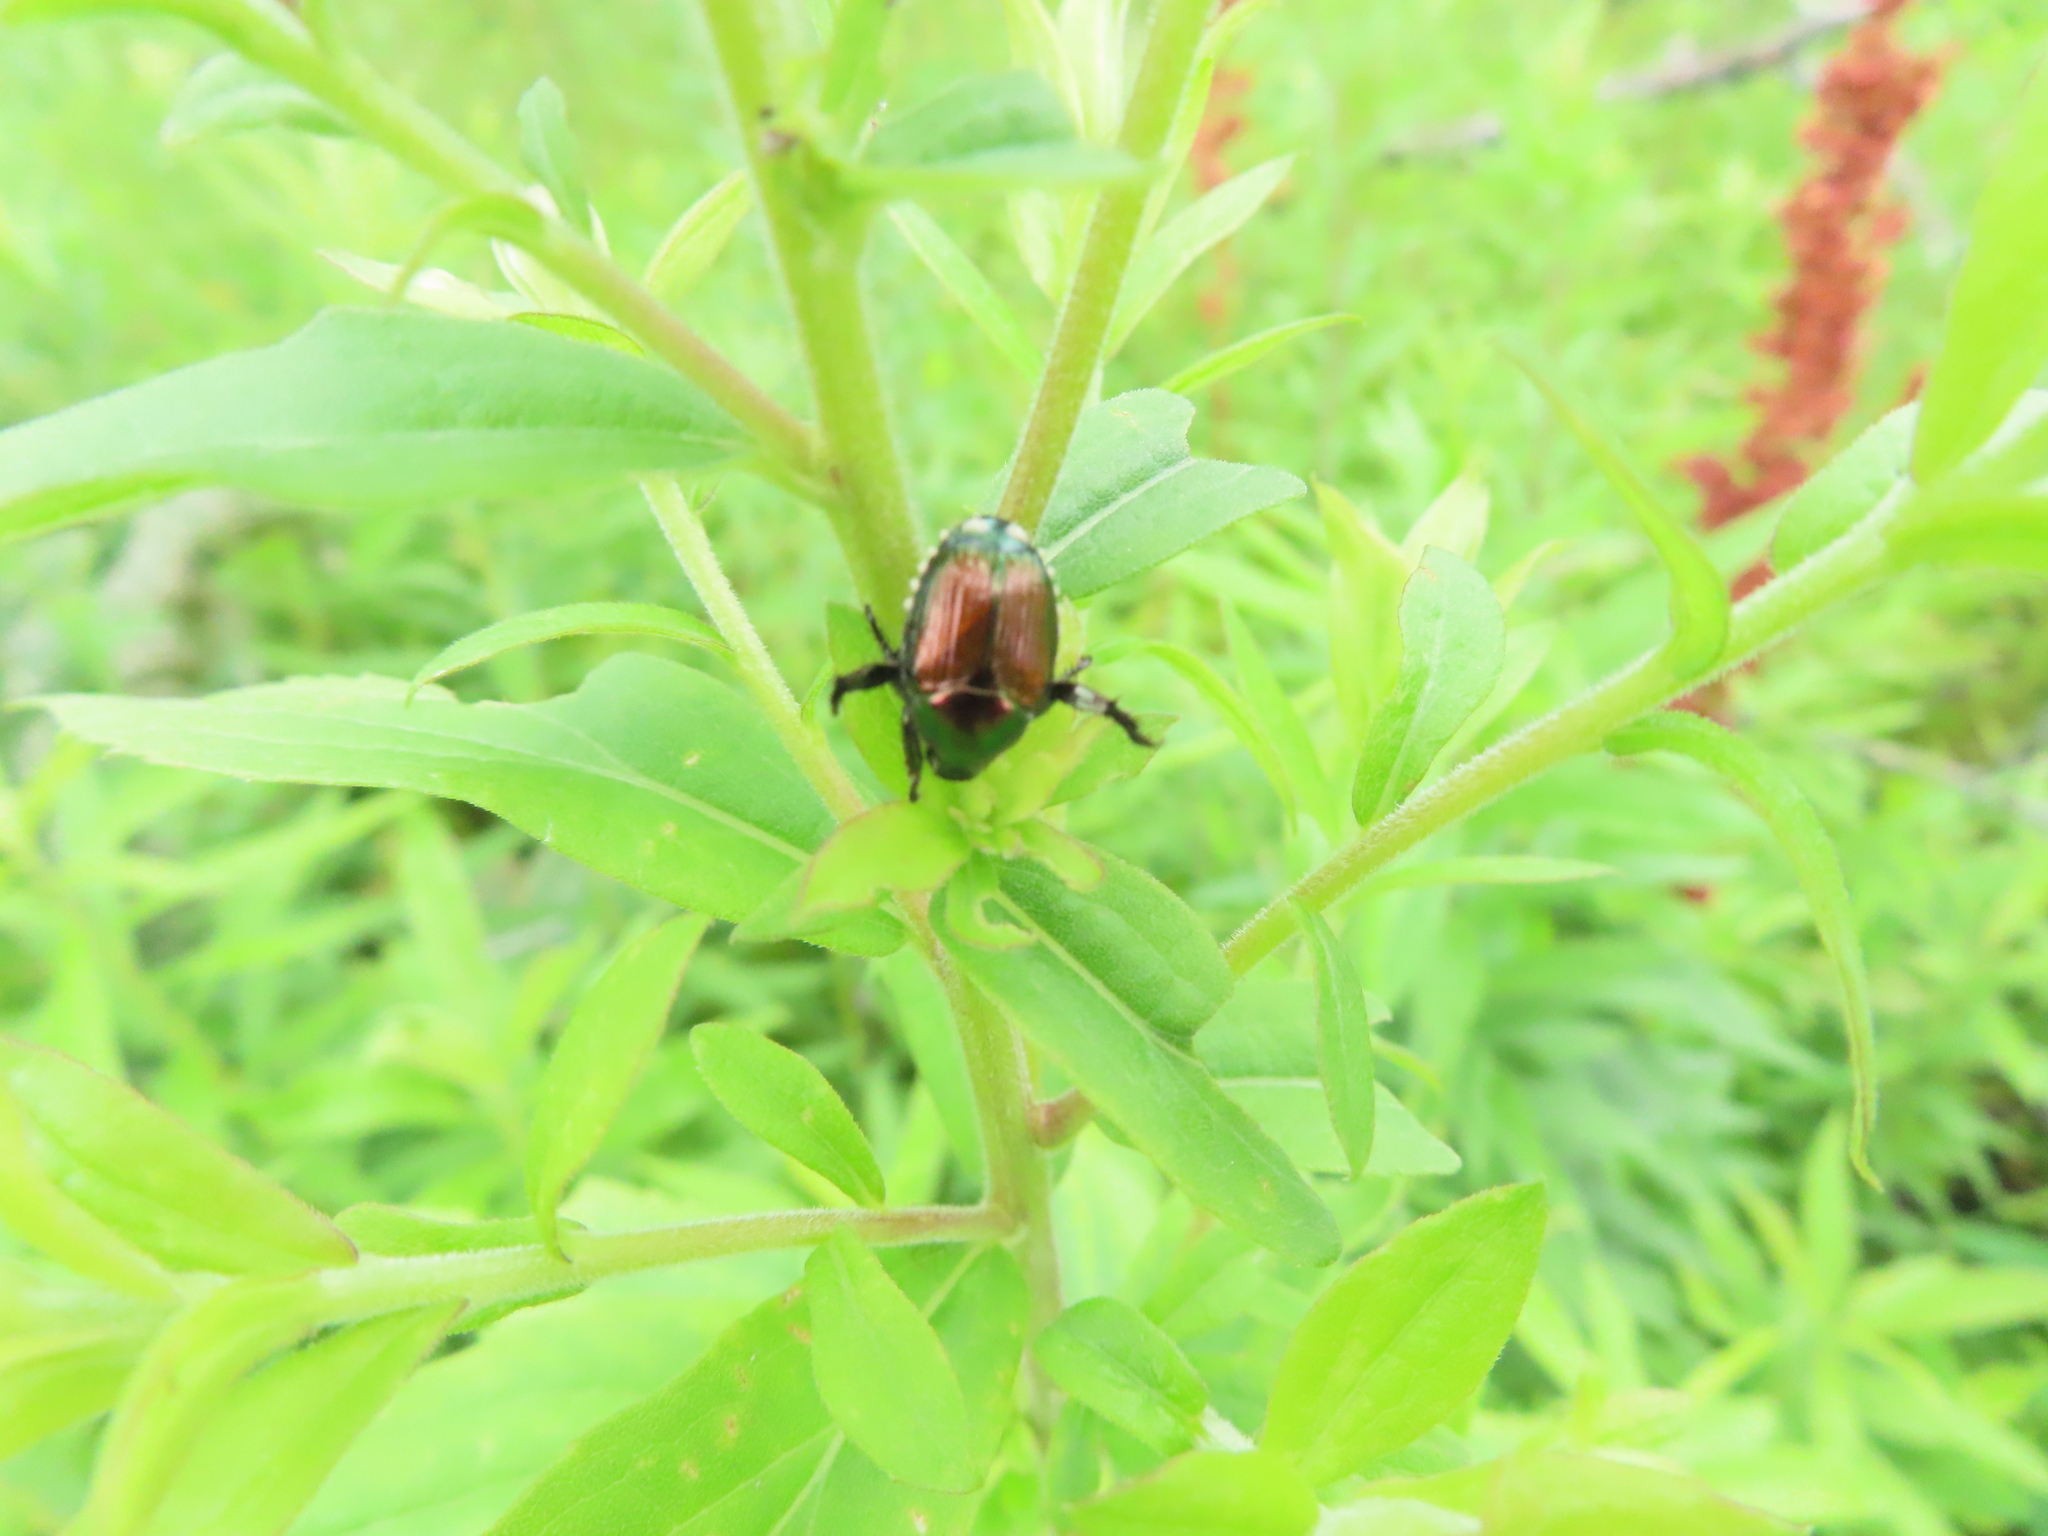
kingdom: Animalia
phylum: Arthropoda
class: Insecta
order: Coleoptera
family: Scarabaeidae
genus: Popillia
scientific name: Popillia japonica
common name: Japanese beetle
